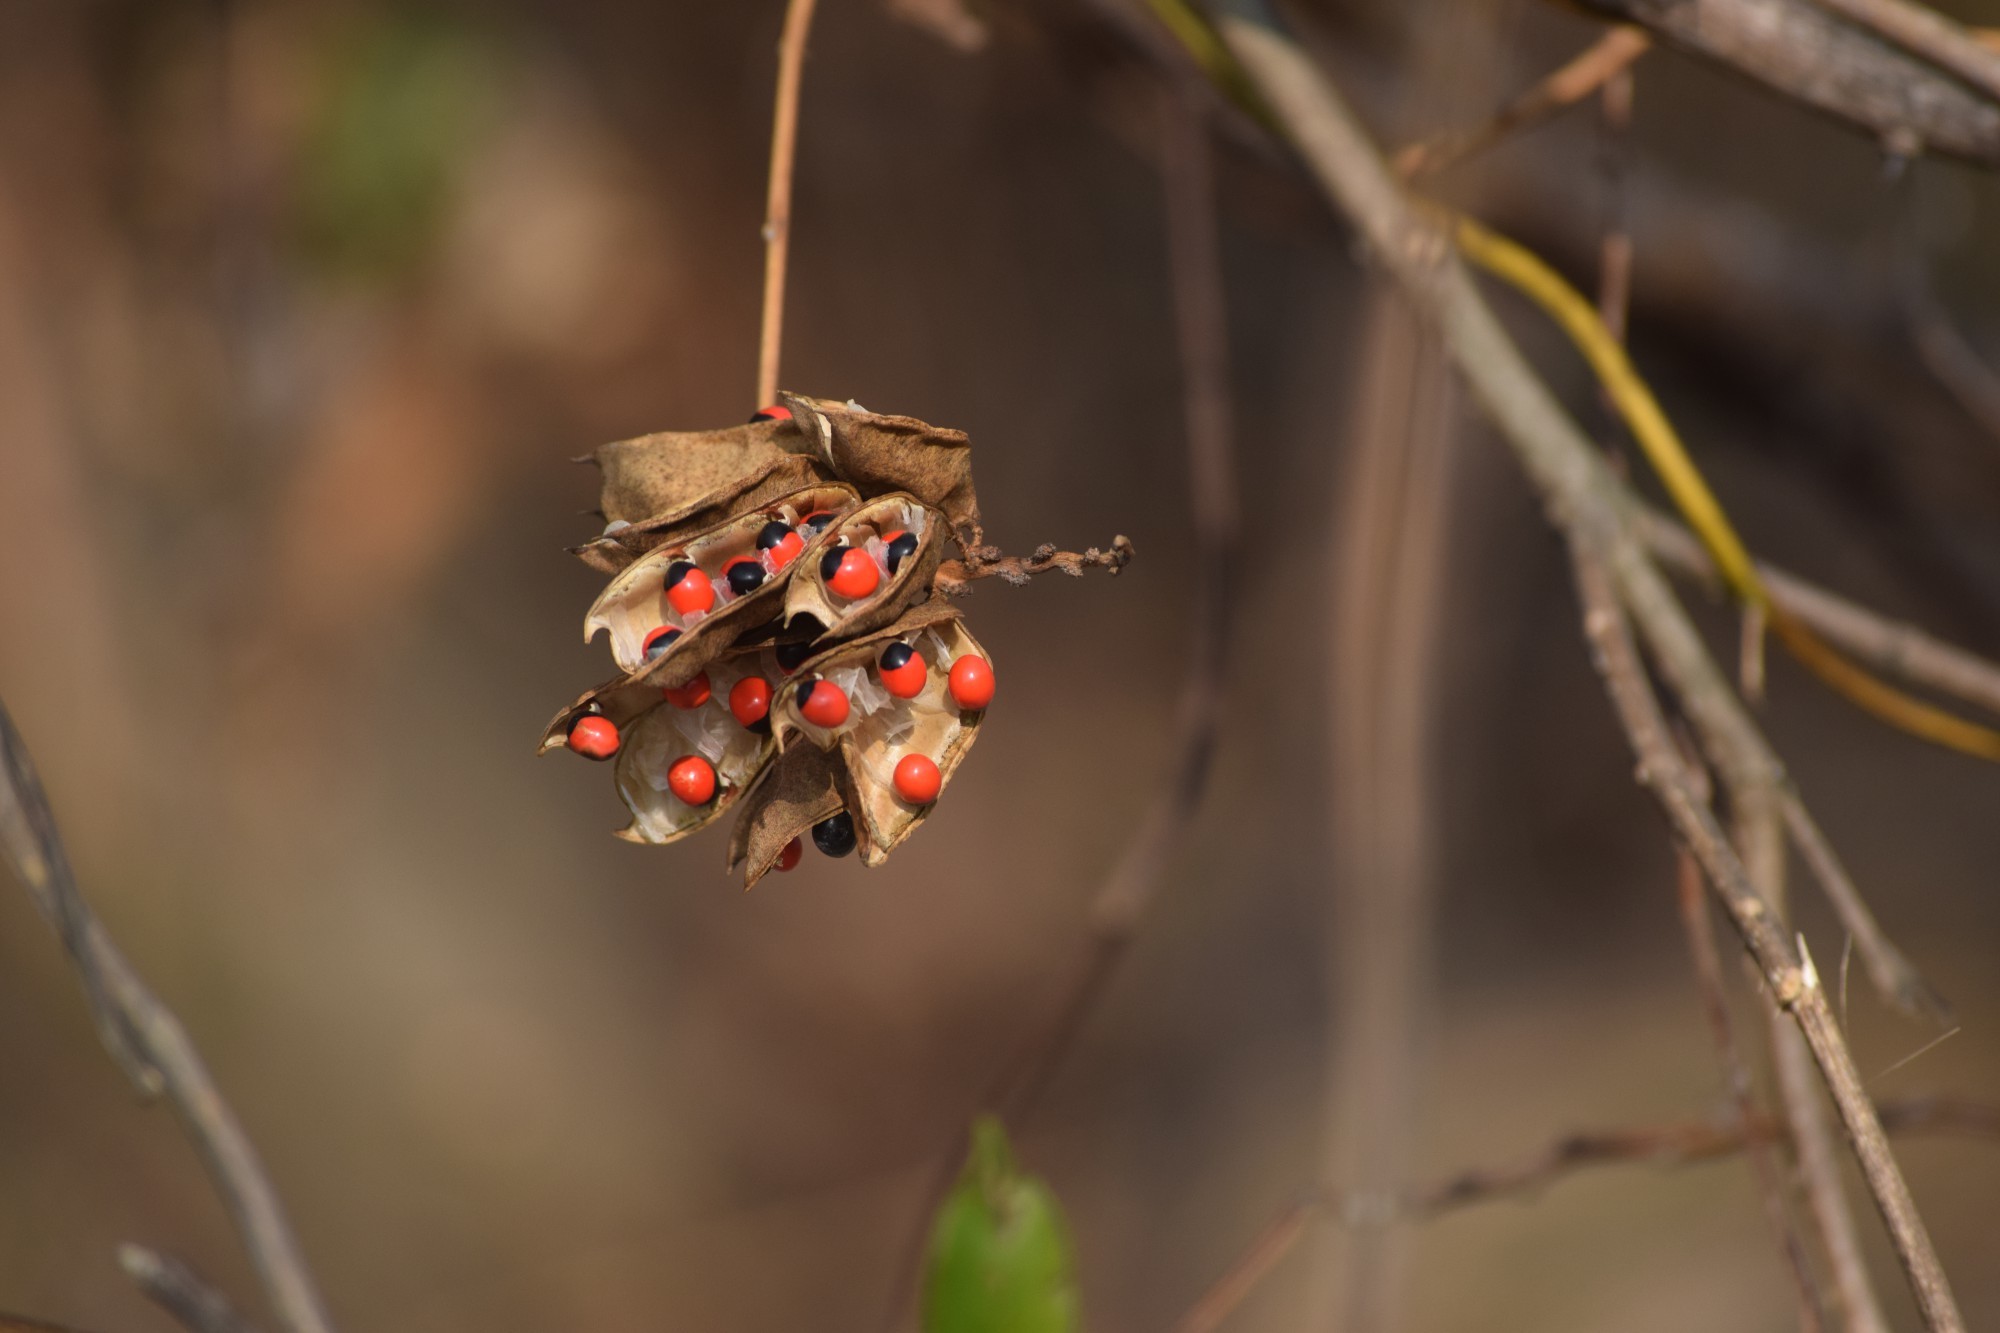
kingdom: Plantae
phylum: Tracheophyta
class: Magnoliopsida
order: Fabales
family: Fabaceae
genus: Abrus
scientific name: Abrus precatorius
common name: Rosarypea
